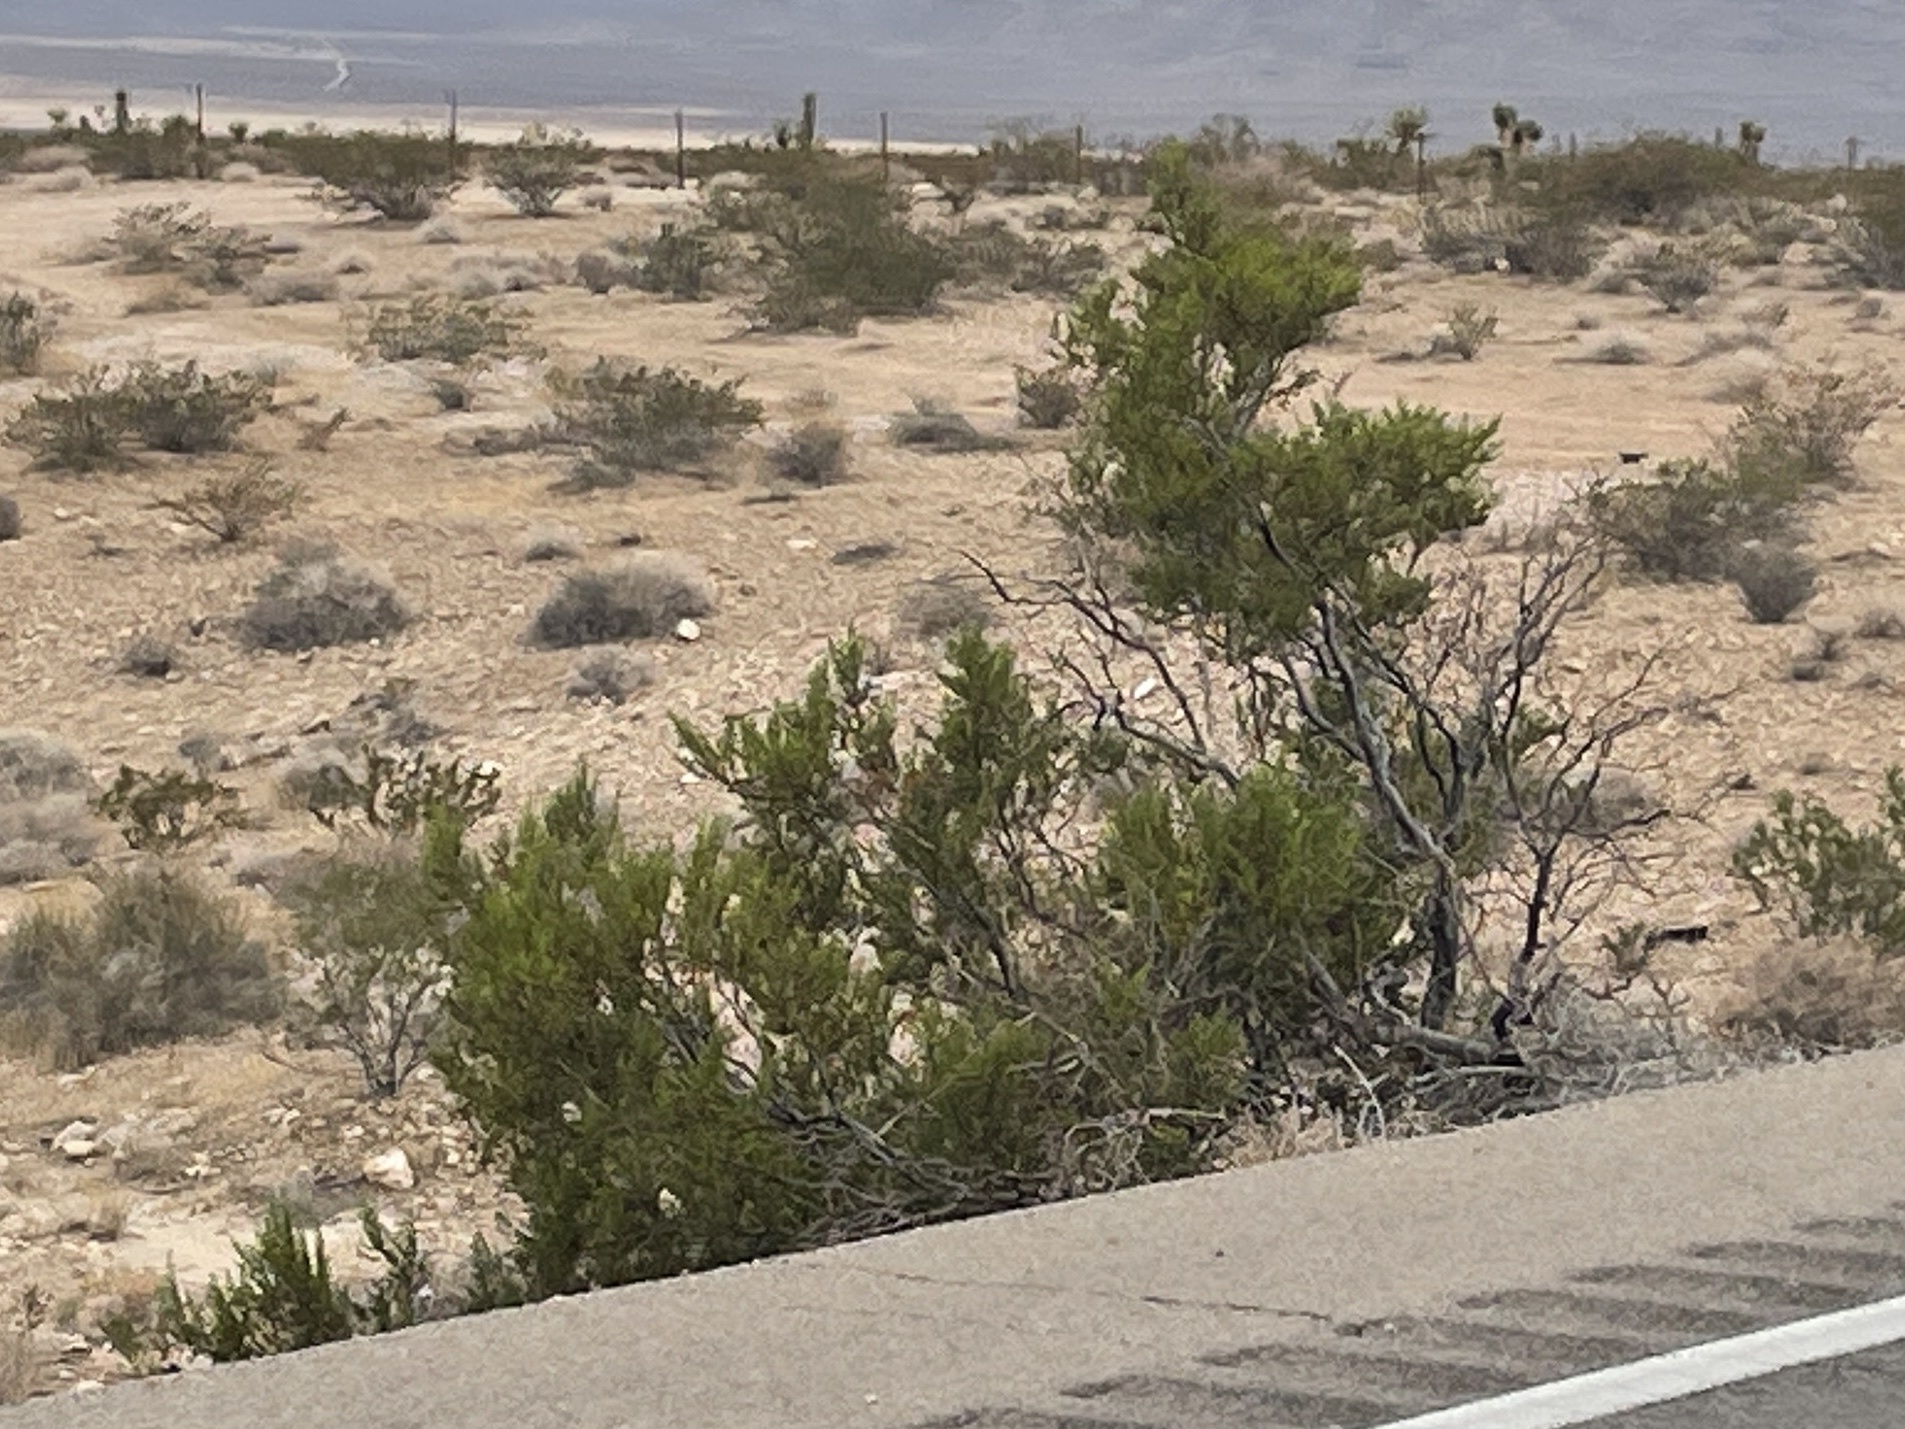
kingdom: Plantae
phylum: Tracheophyta
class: Magnoliopsida
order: Zygophyllales
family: Zygophyllaceae
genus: Larrea
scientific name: Larrea tridentata
